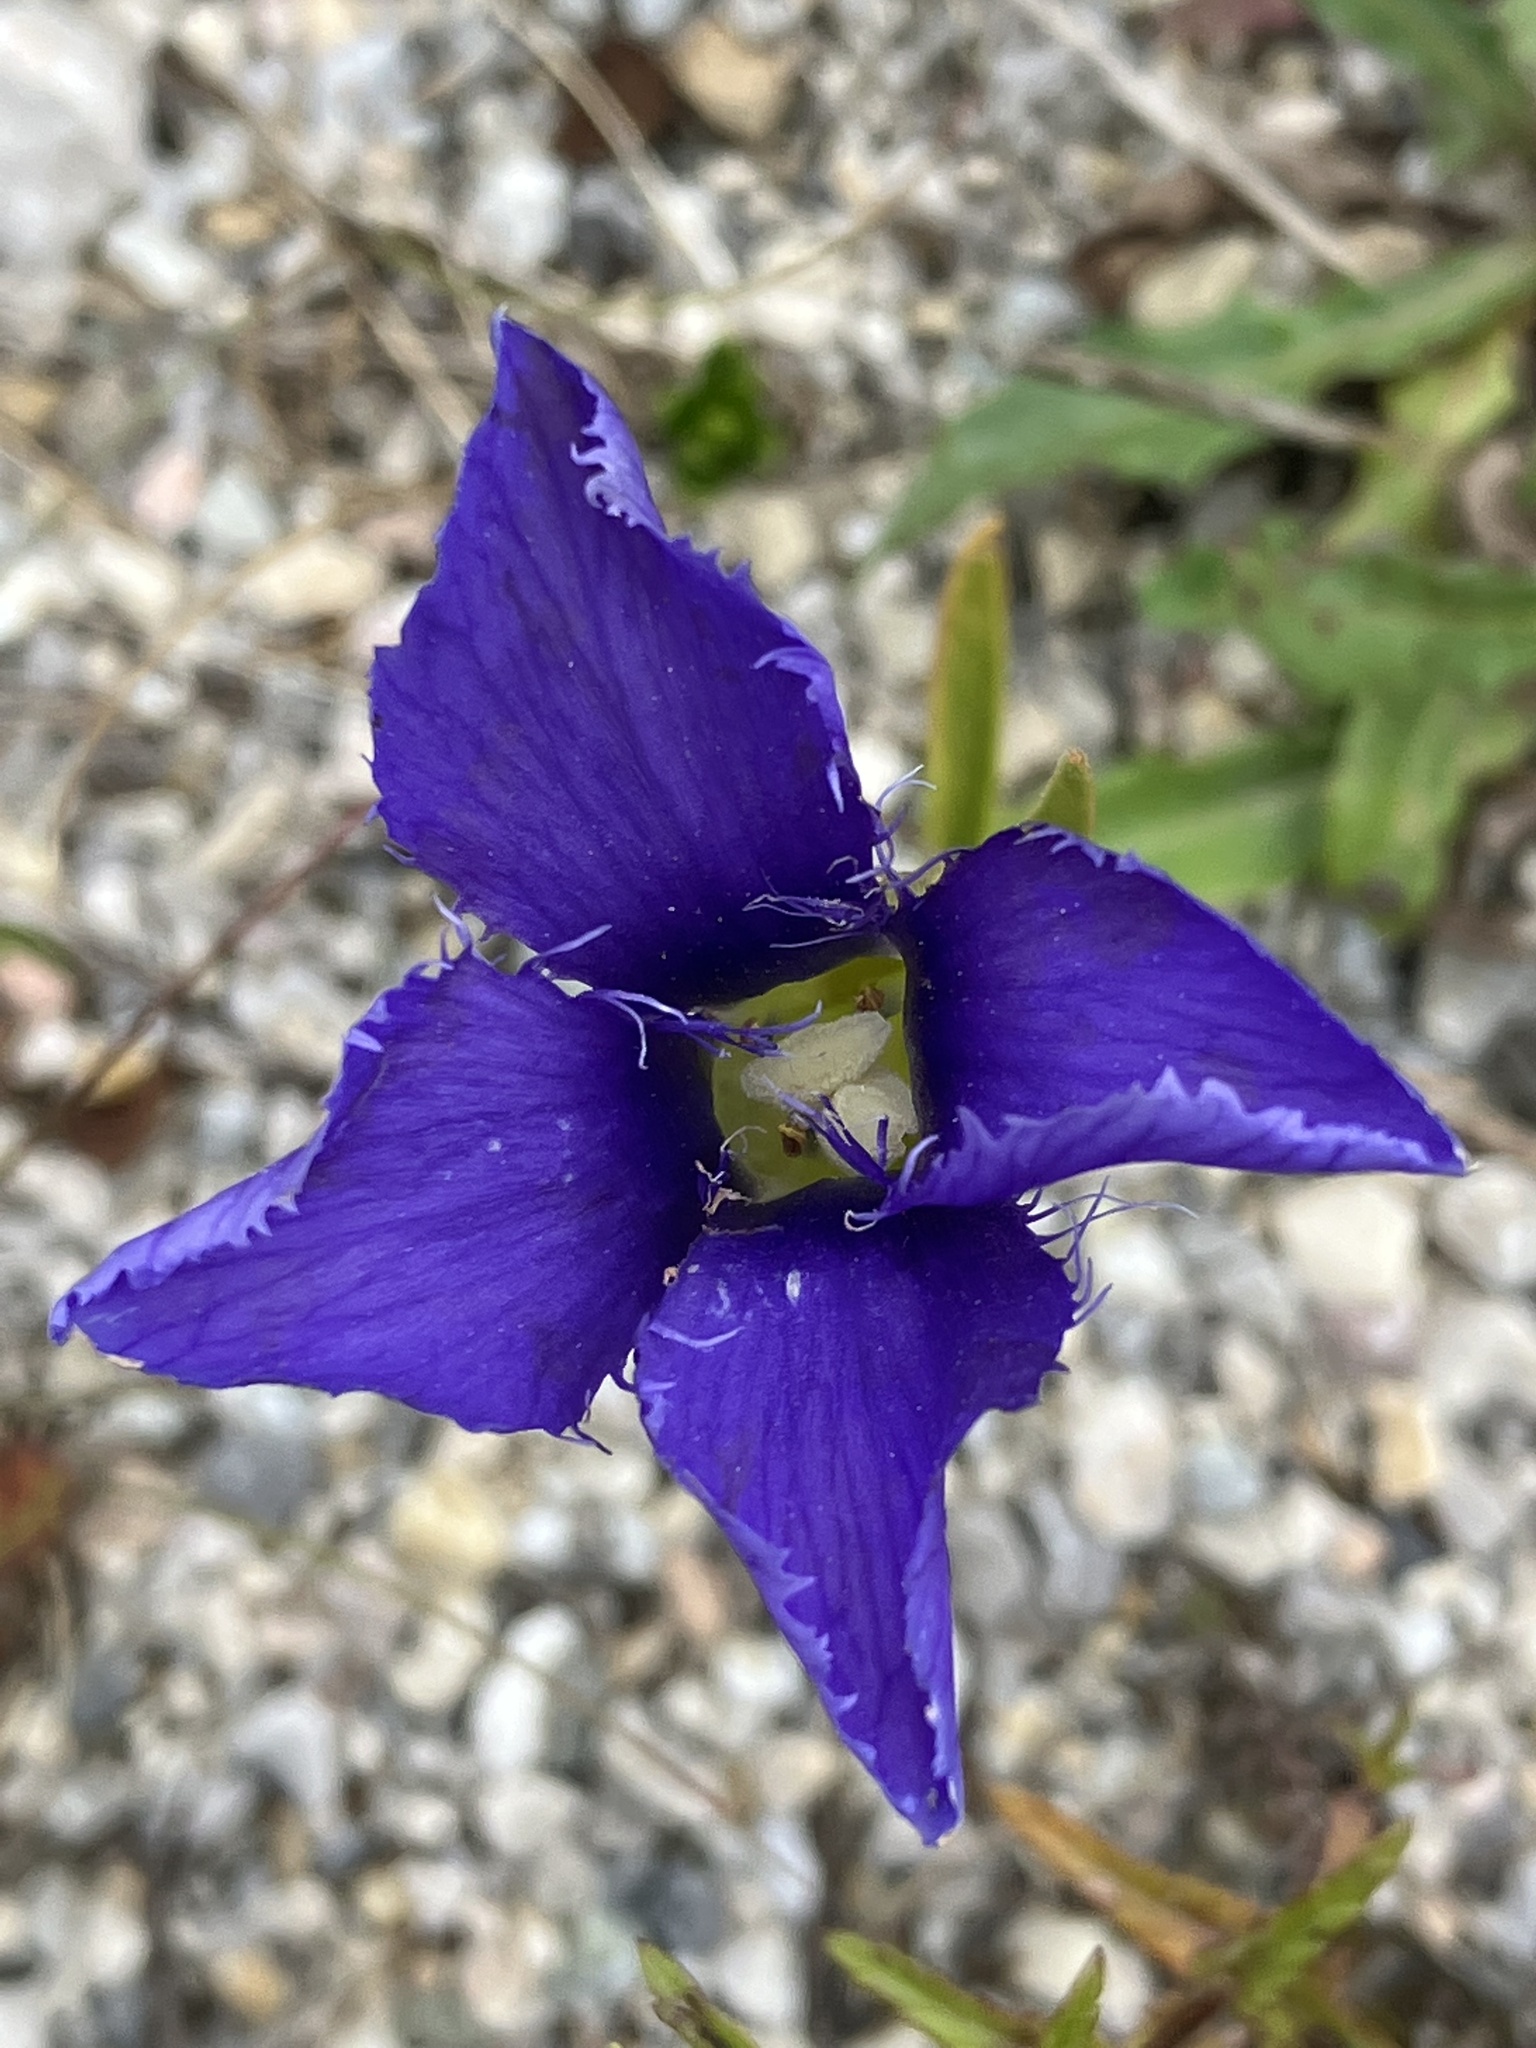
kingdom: Plantae
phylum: Tracheophyta
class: Magnoliopsida
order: Gentianales
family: Gentianaceae
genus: Gentianopsis
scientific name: Gentianopsis ciliata
